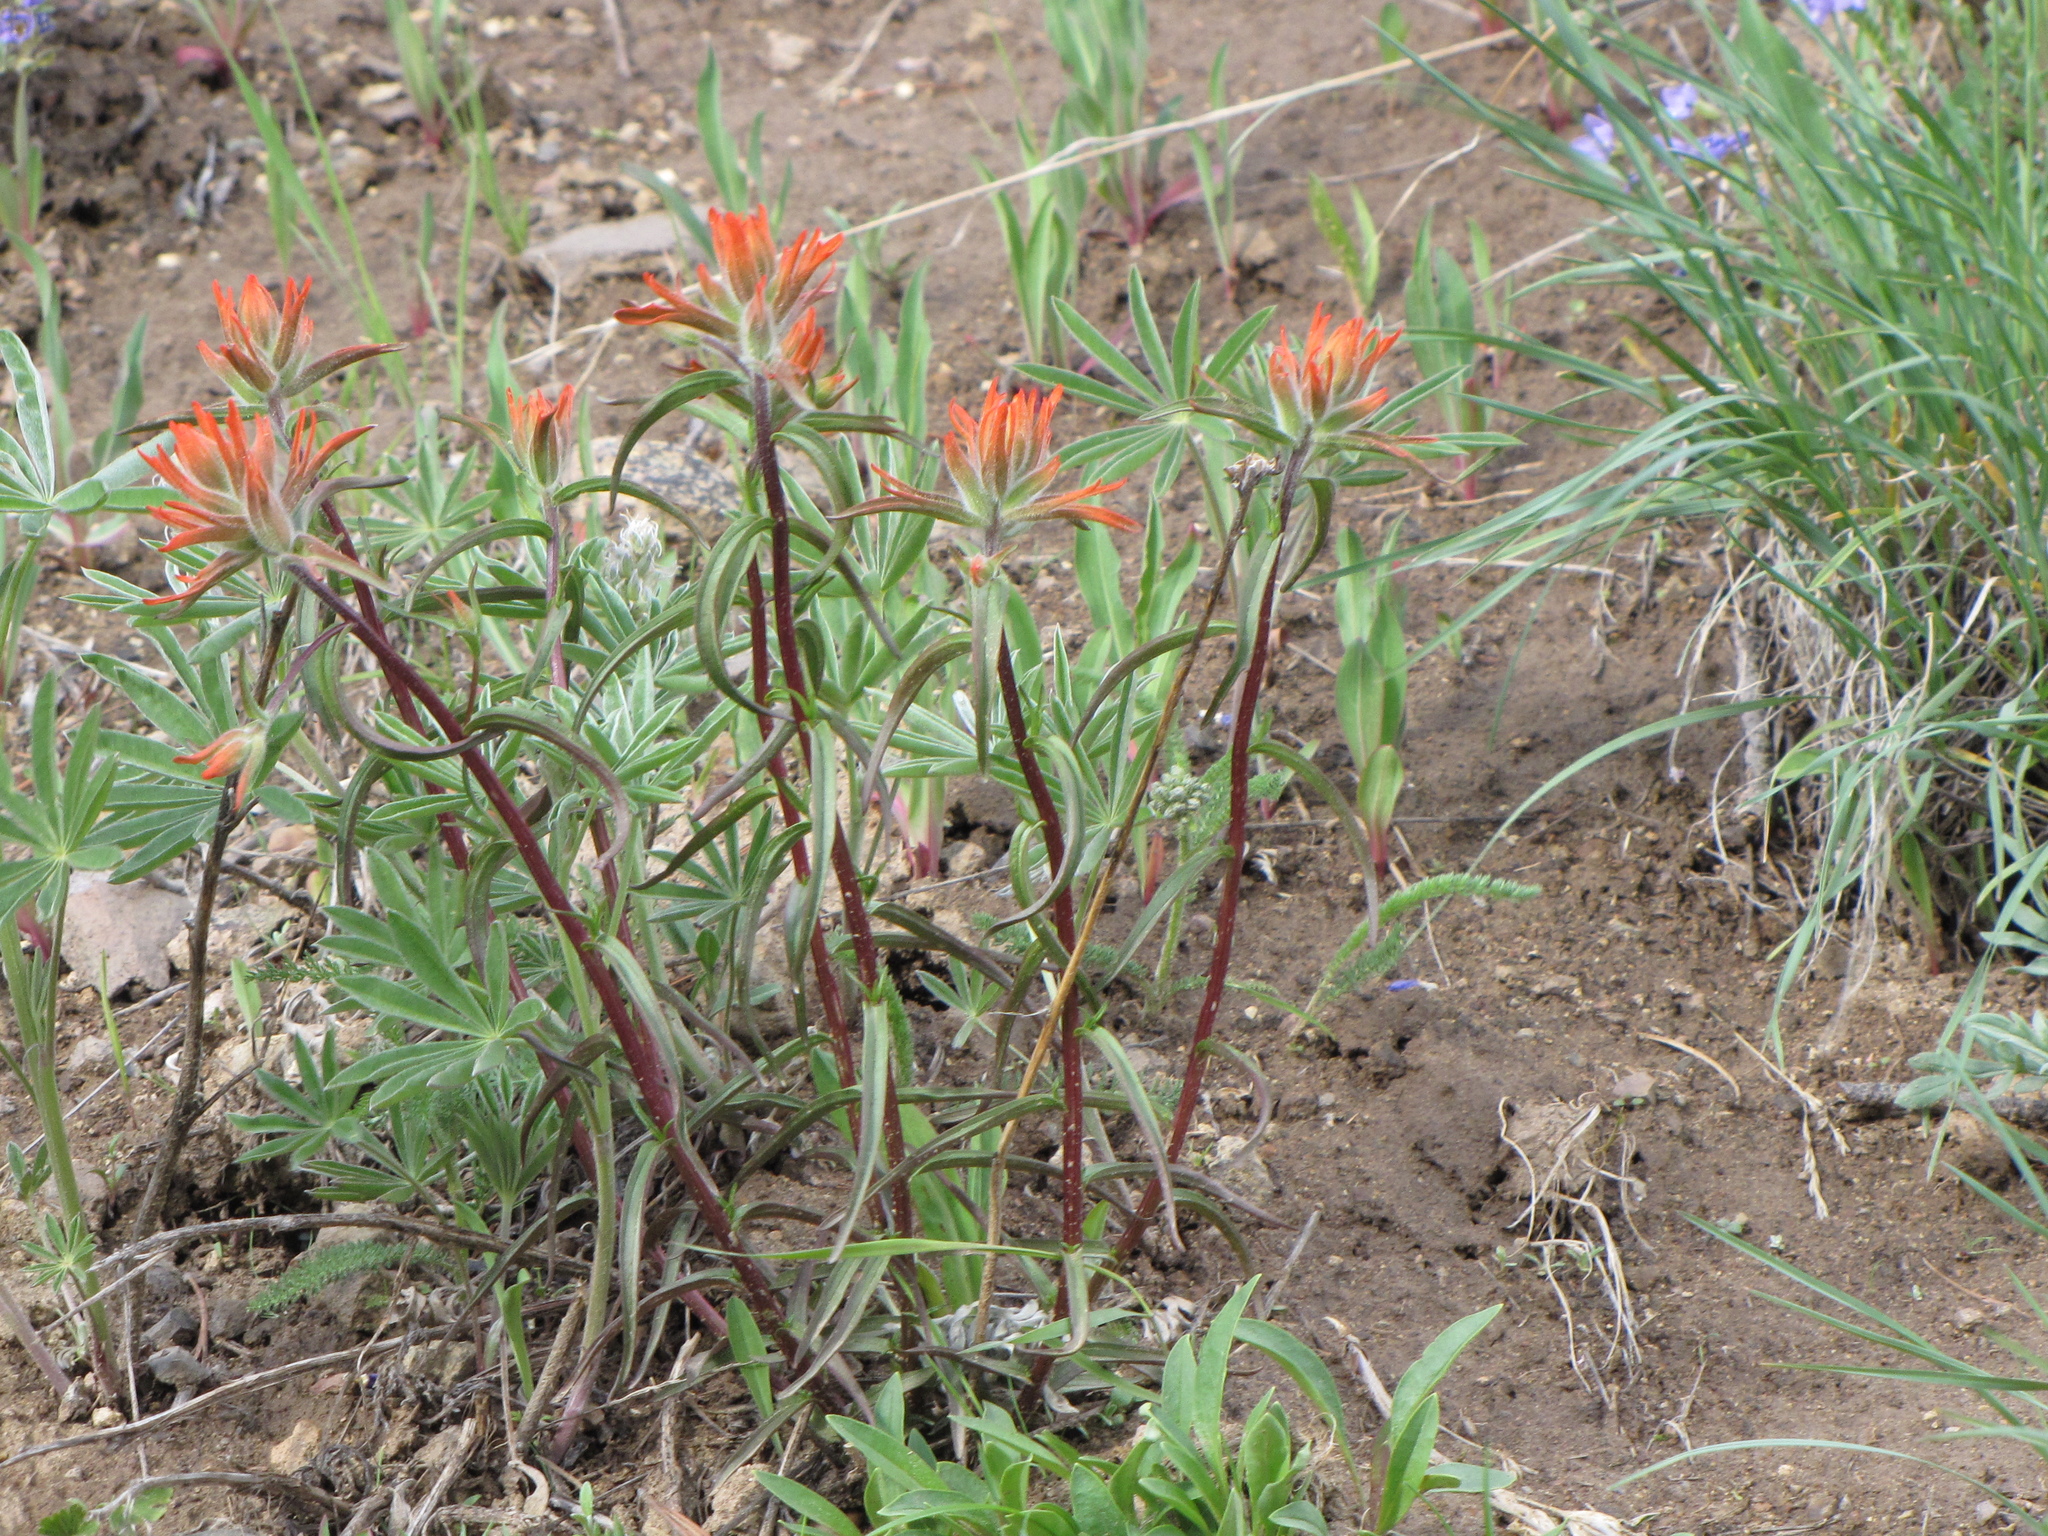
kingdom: Plantae
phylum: Tracheophyta
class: Magnoliopsida
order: Lamiales
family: Orobanchaceae
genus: Castilleja
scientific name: Castilleja miniata
